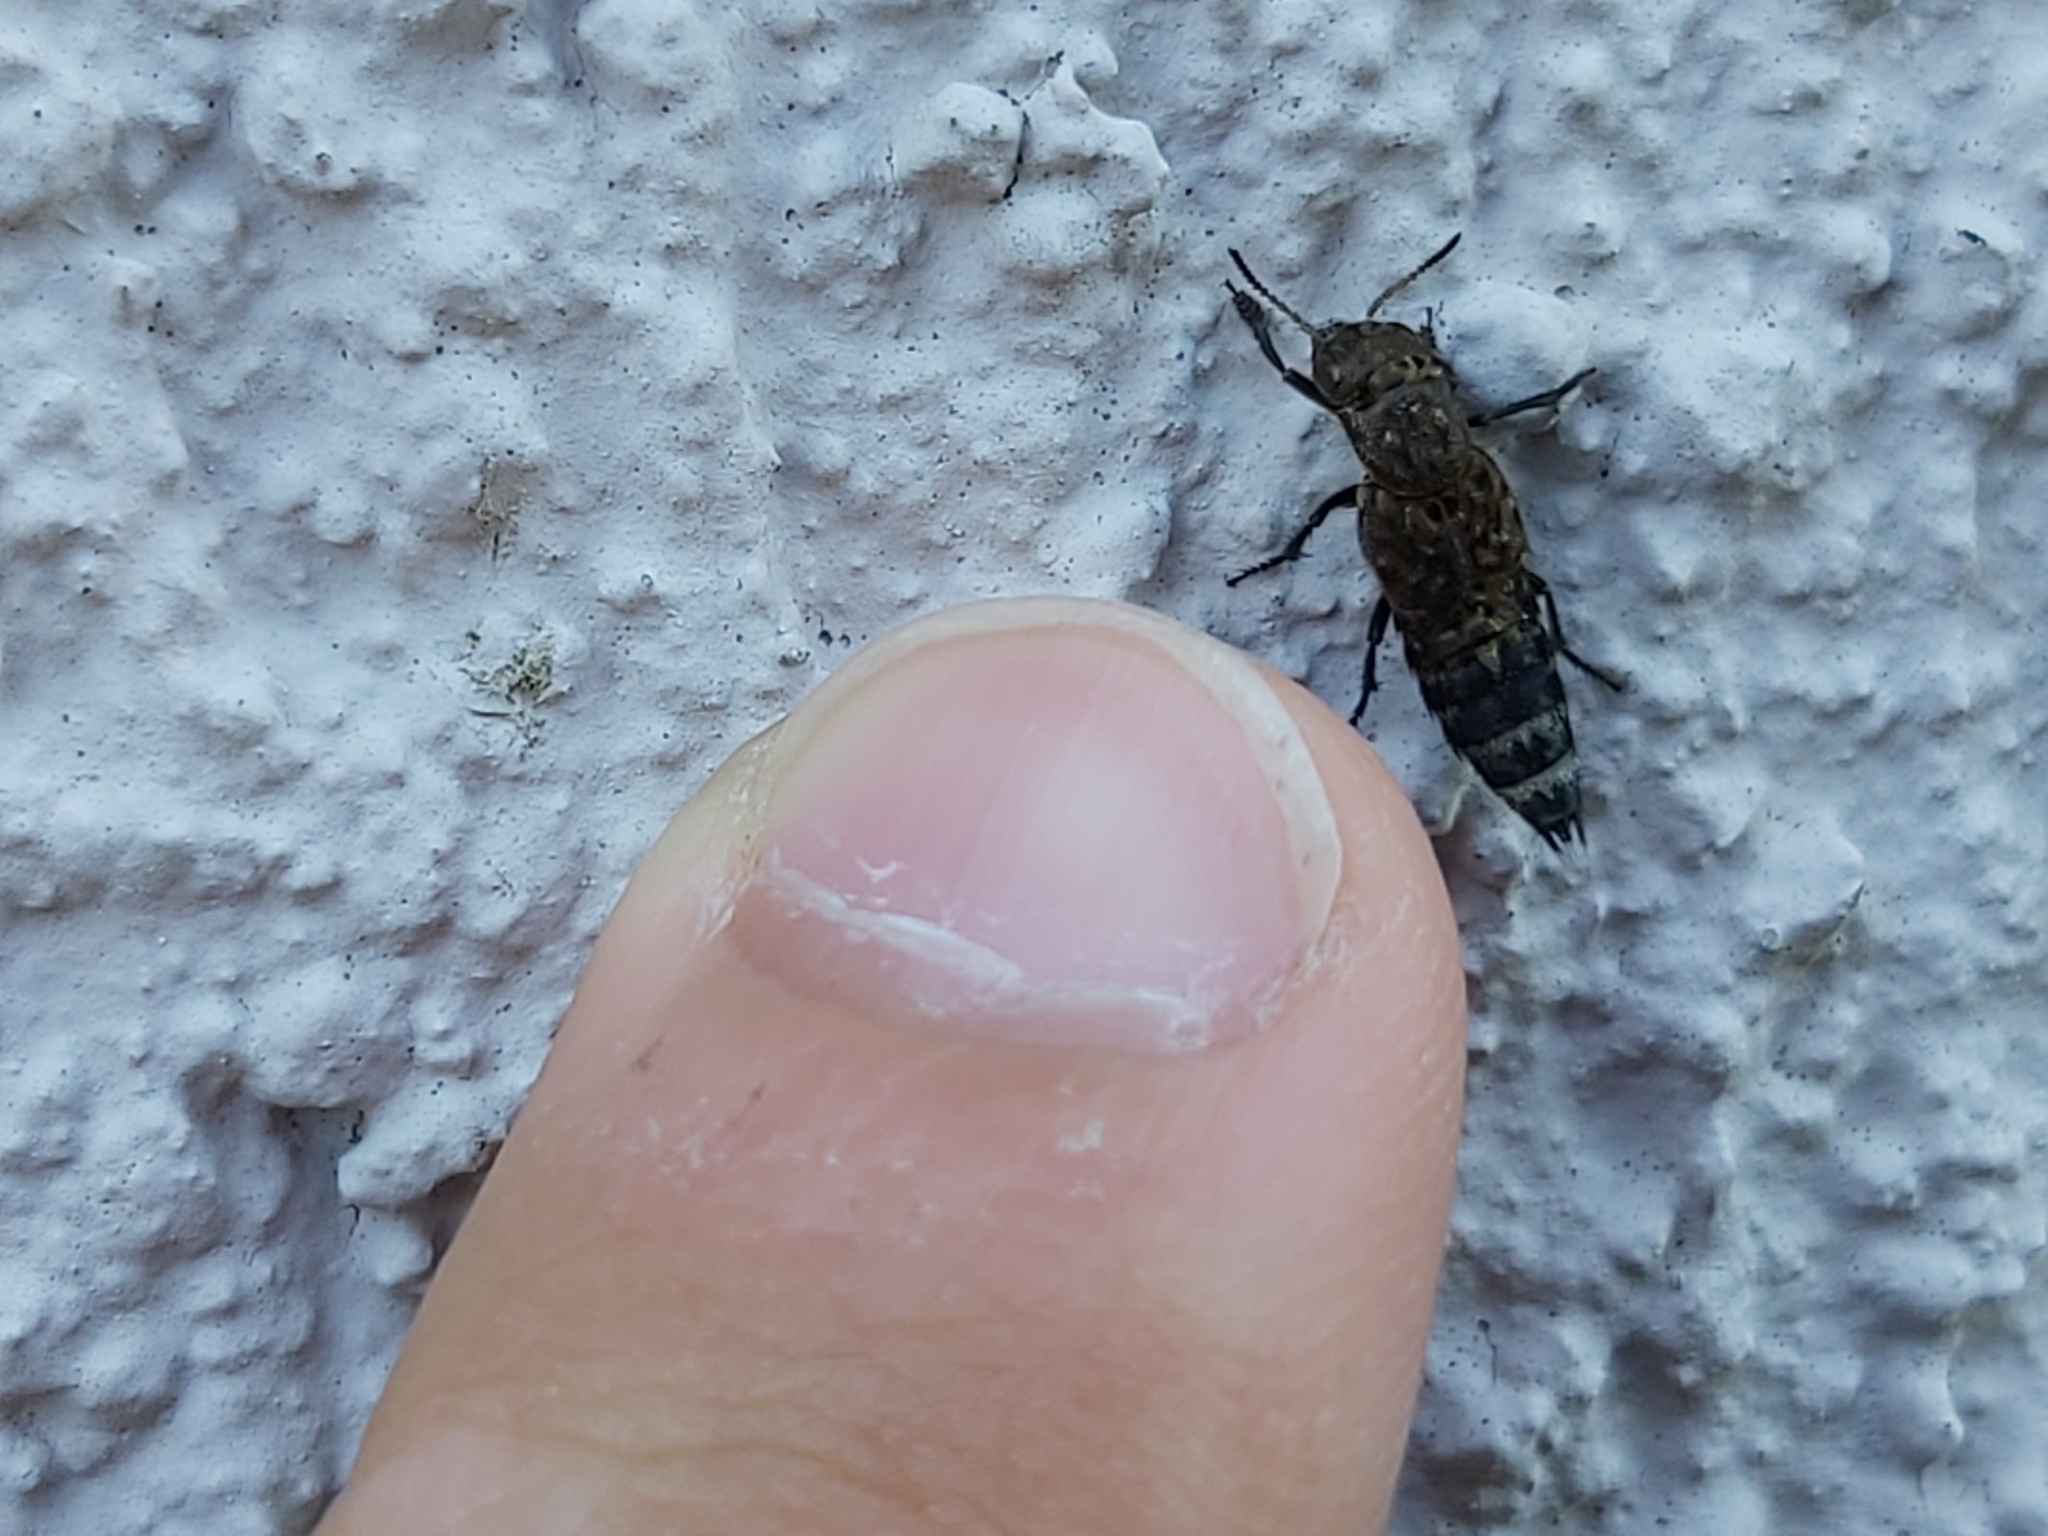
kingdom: Animalia
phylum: Arthropoda
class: Insecta
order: Coleoptera
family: Staphylinidae
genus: Ontholestes
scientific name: Ontholestes murinus
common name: Staph beetle
